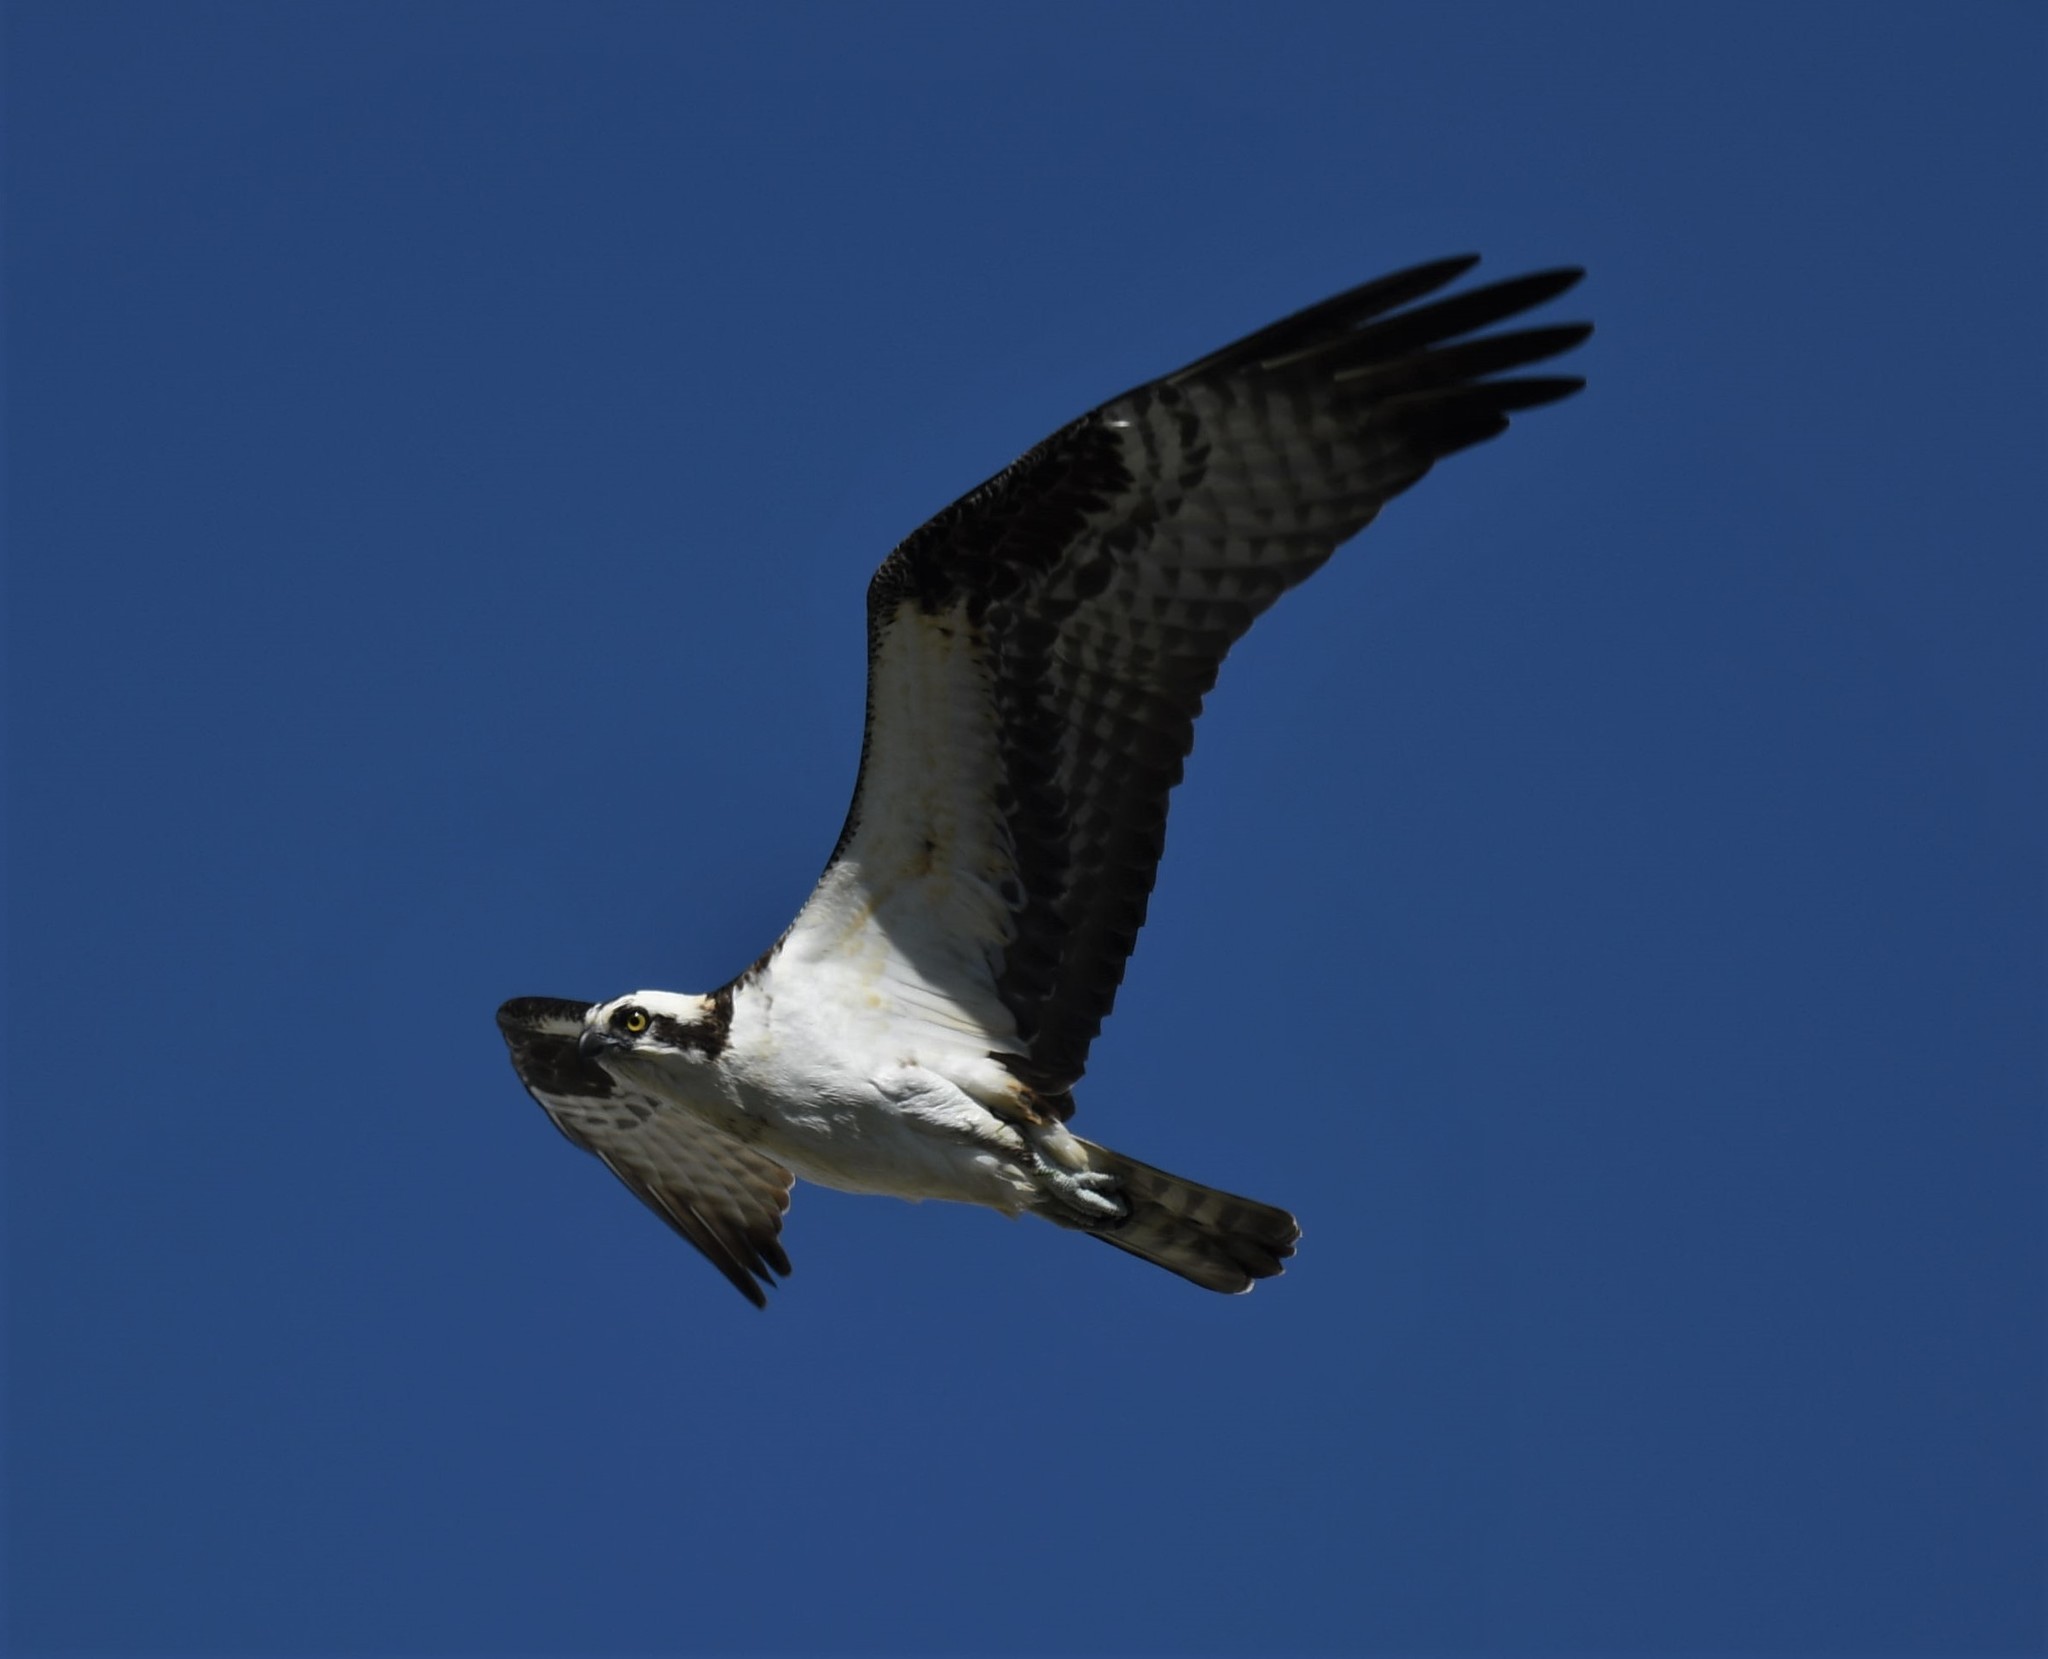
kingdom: Animalia
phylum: Chordata
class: Aves
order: Accipitriformes
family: Pandionidae
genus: Pandion
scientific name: Pandion haliaetus
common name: Osprey
